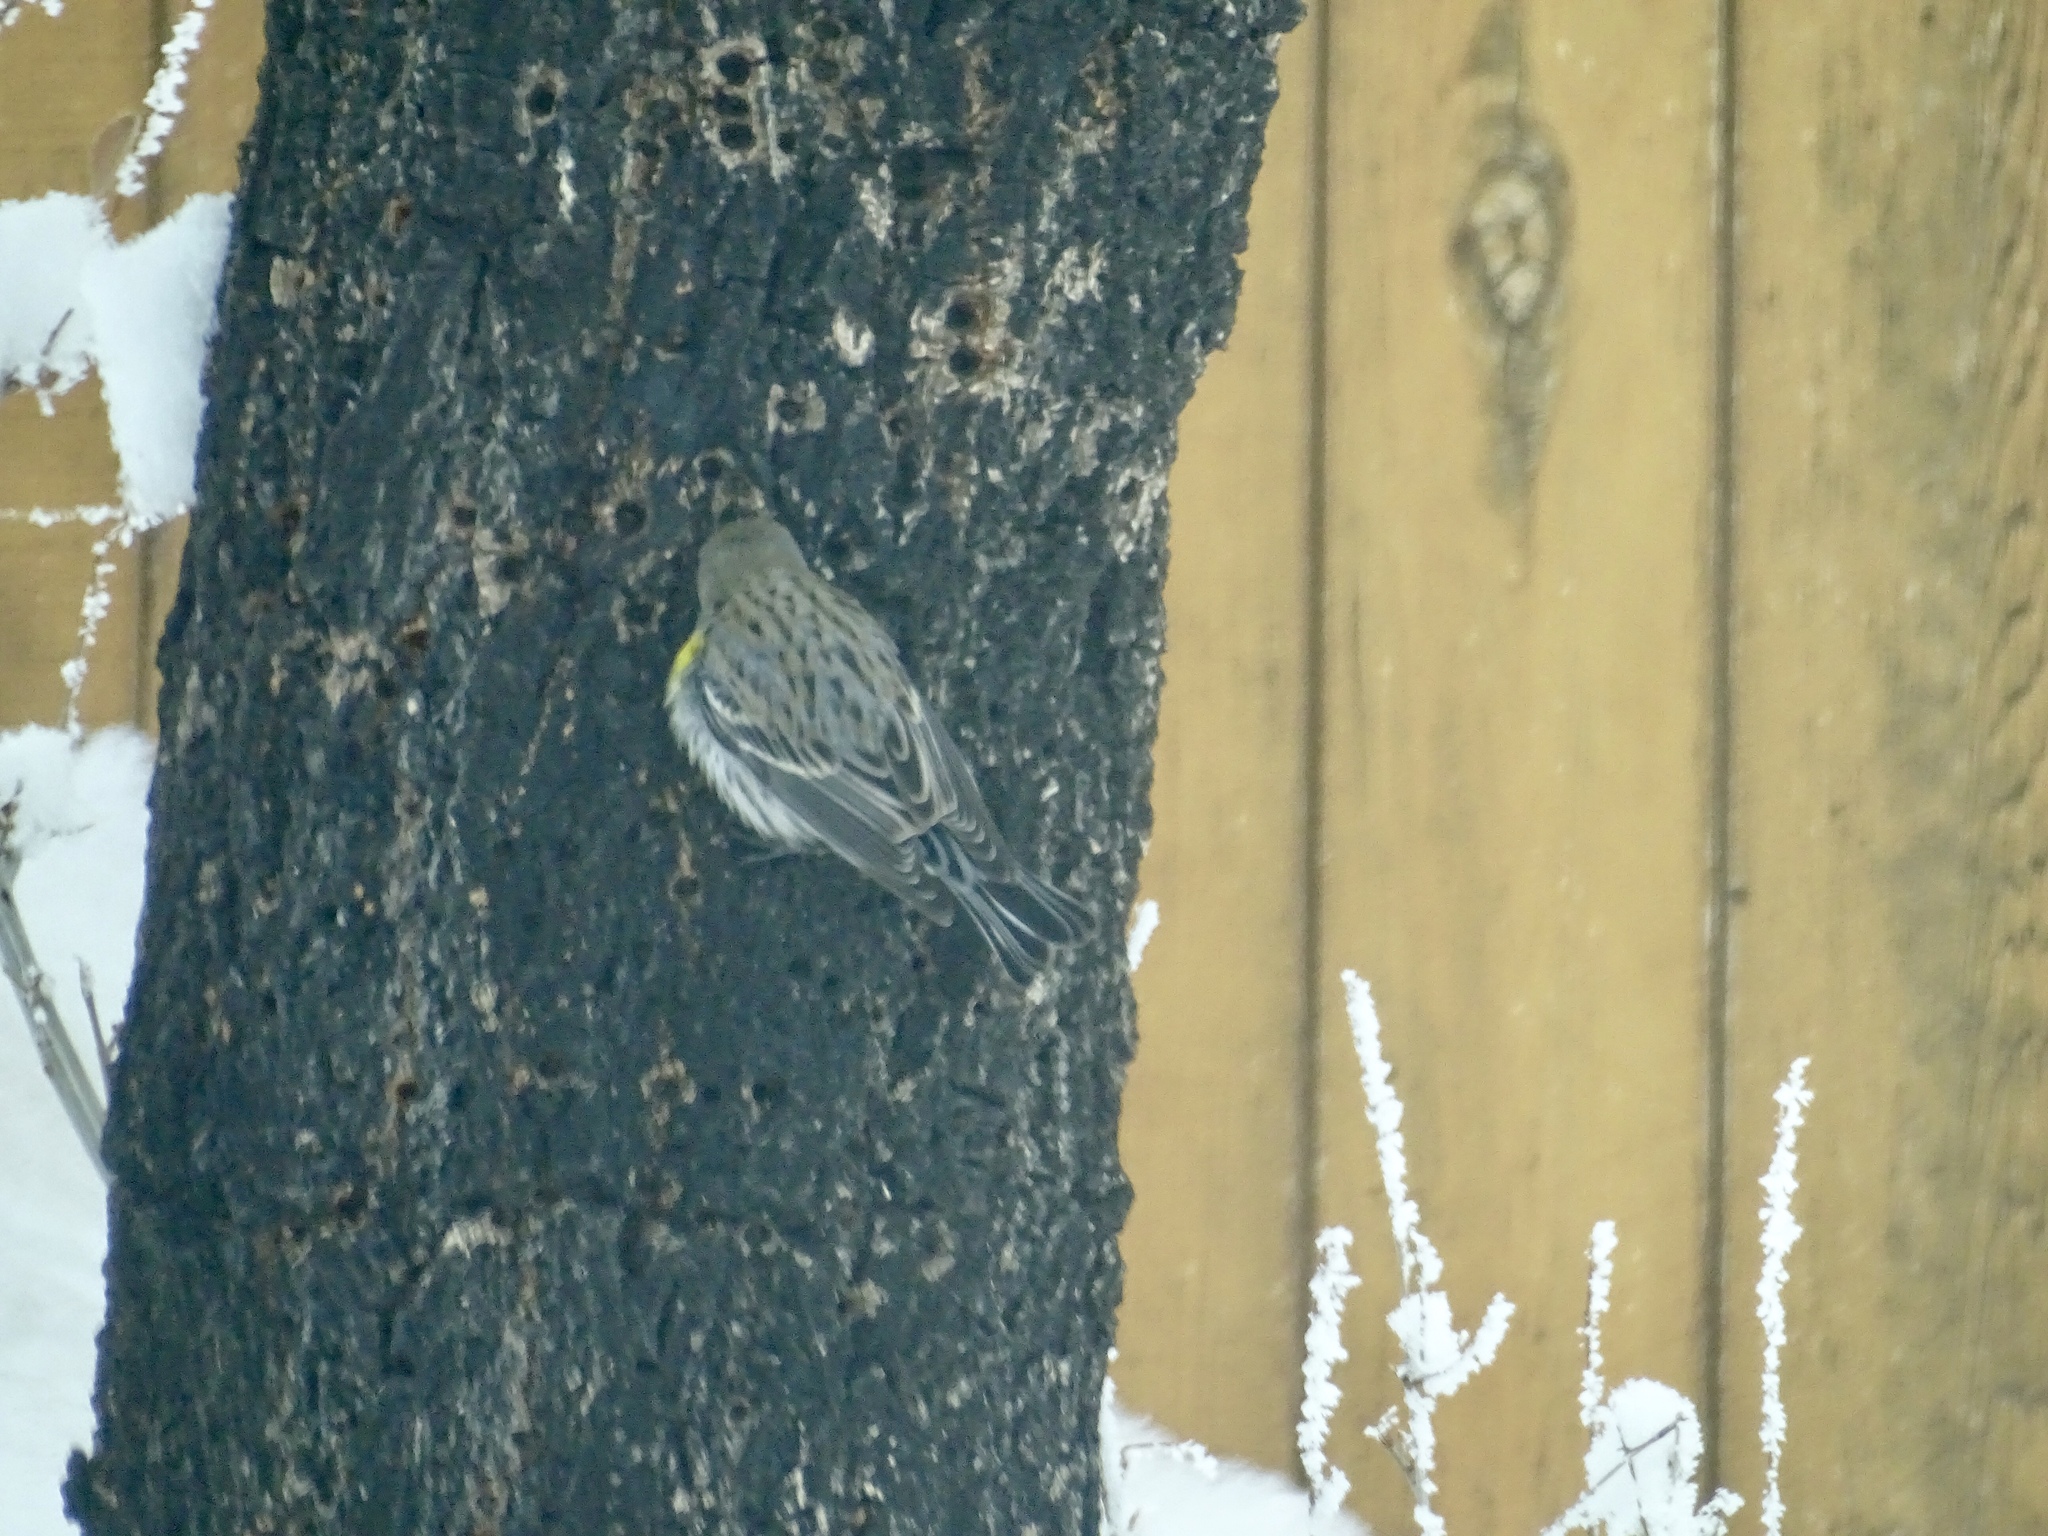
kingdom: Animalia
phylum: Chordata
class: Aves
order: Passeriformes
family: Parulidae
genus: Setophaga
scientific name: Setophaga auduboni
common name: Audubon's warbler
